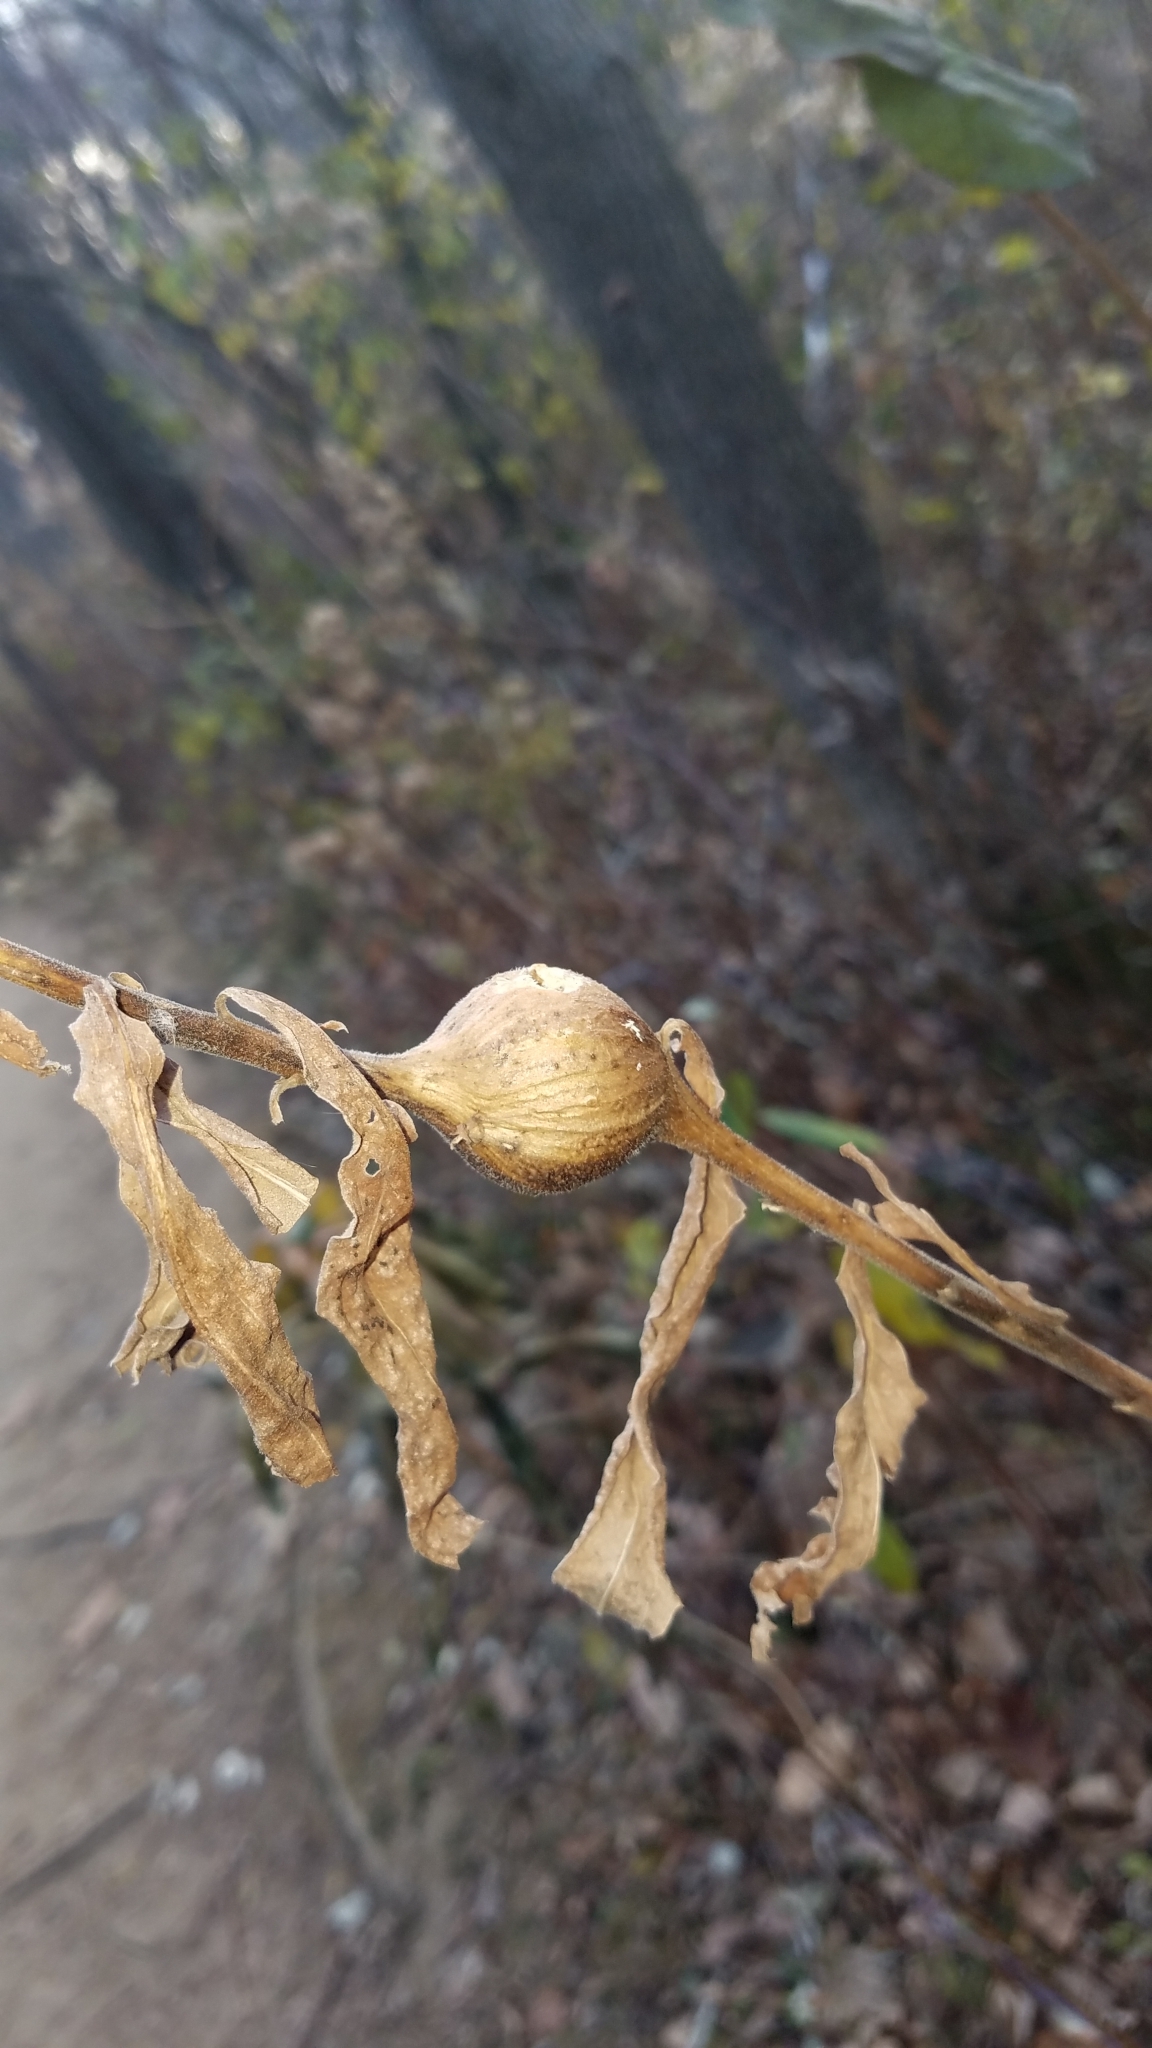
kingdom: Animalia
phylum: Arthropoda
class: Insecta
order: Diptera
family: Tephritidae
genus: Eurosta
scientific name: Eurosta solidaginis
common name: Goldenrod gall fly
